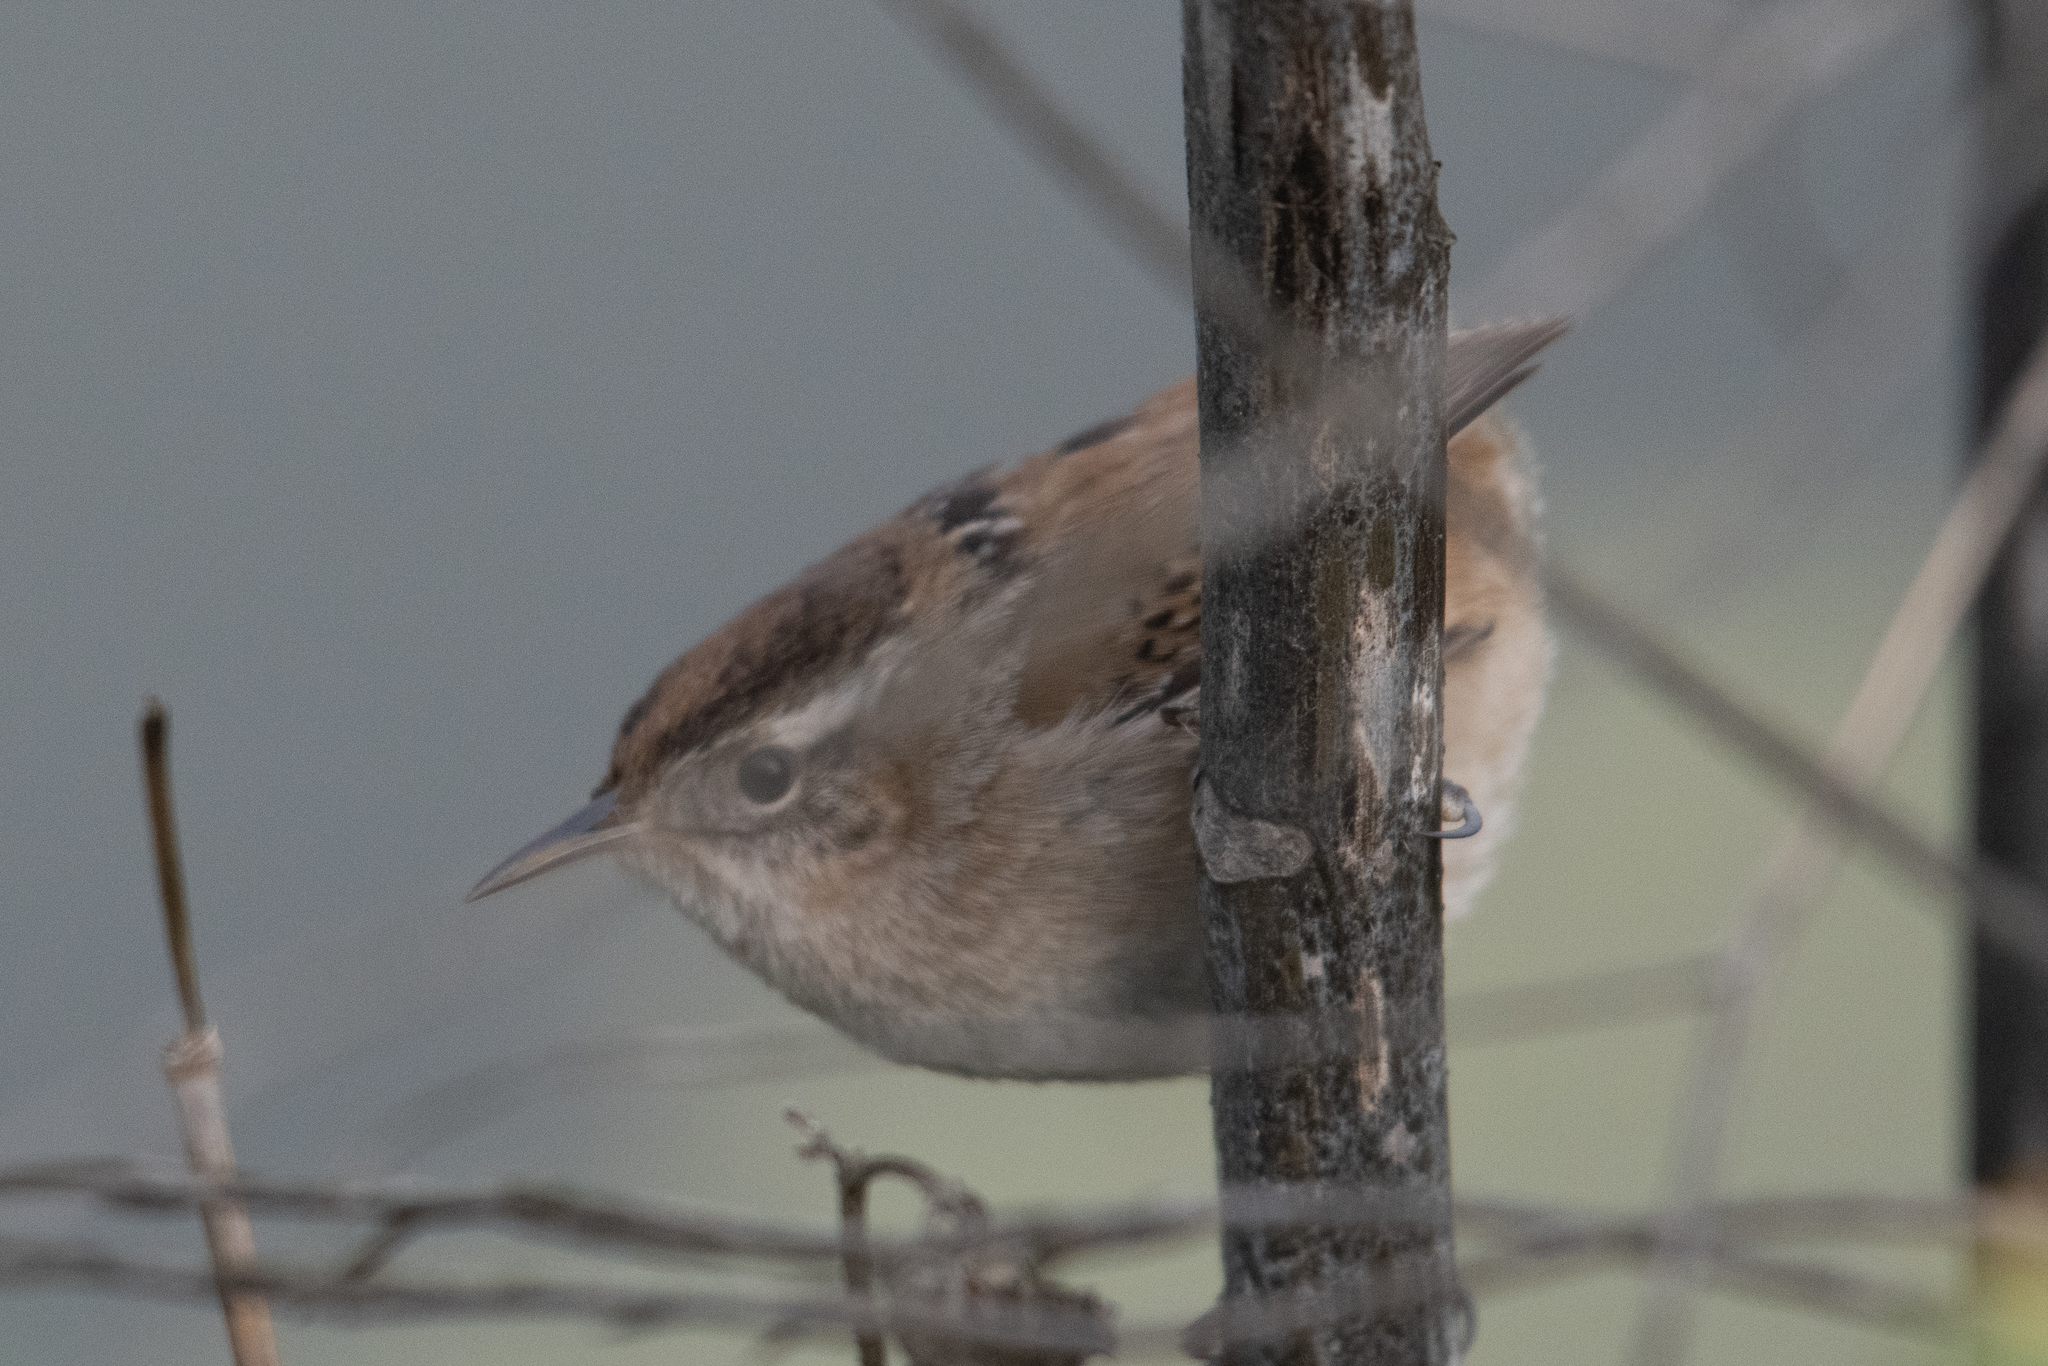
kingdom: Animalia
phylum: Chordata
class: Aves
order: Passeriformes
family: Troglodytidae
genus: Cistothorus
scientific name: Cistothorus palustris
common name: Marsh wren
